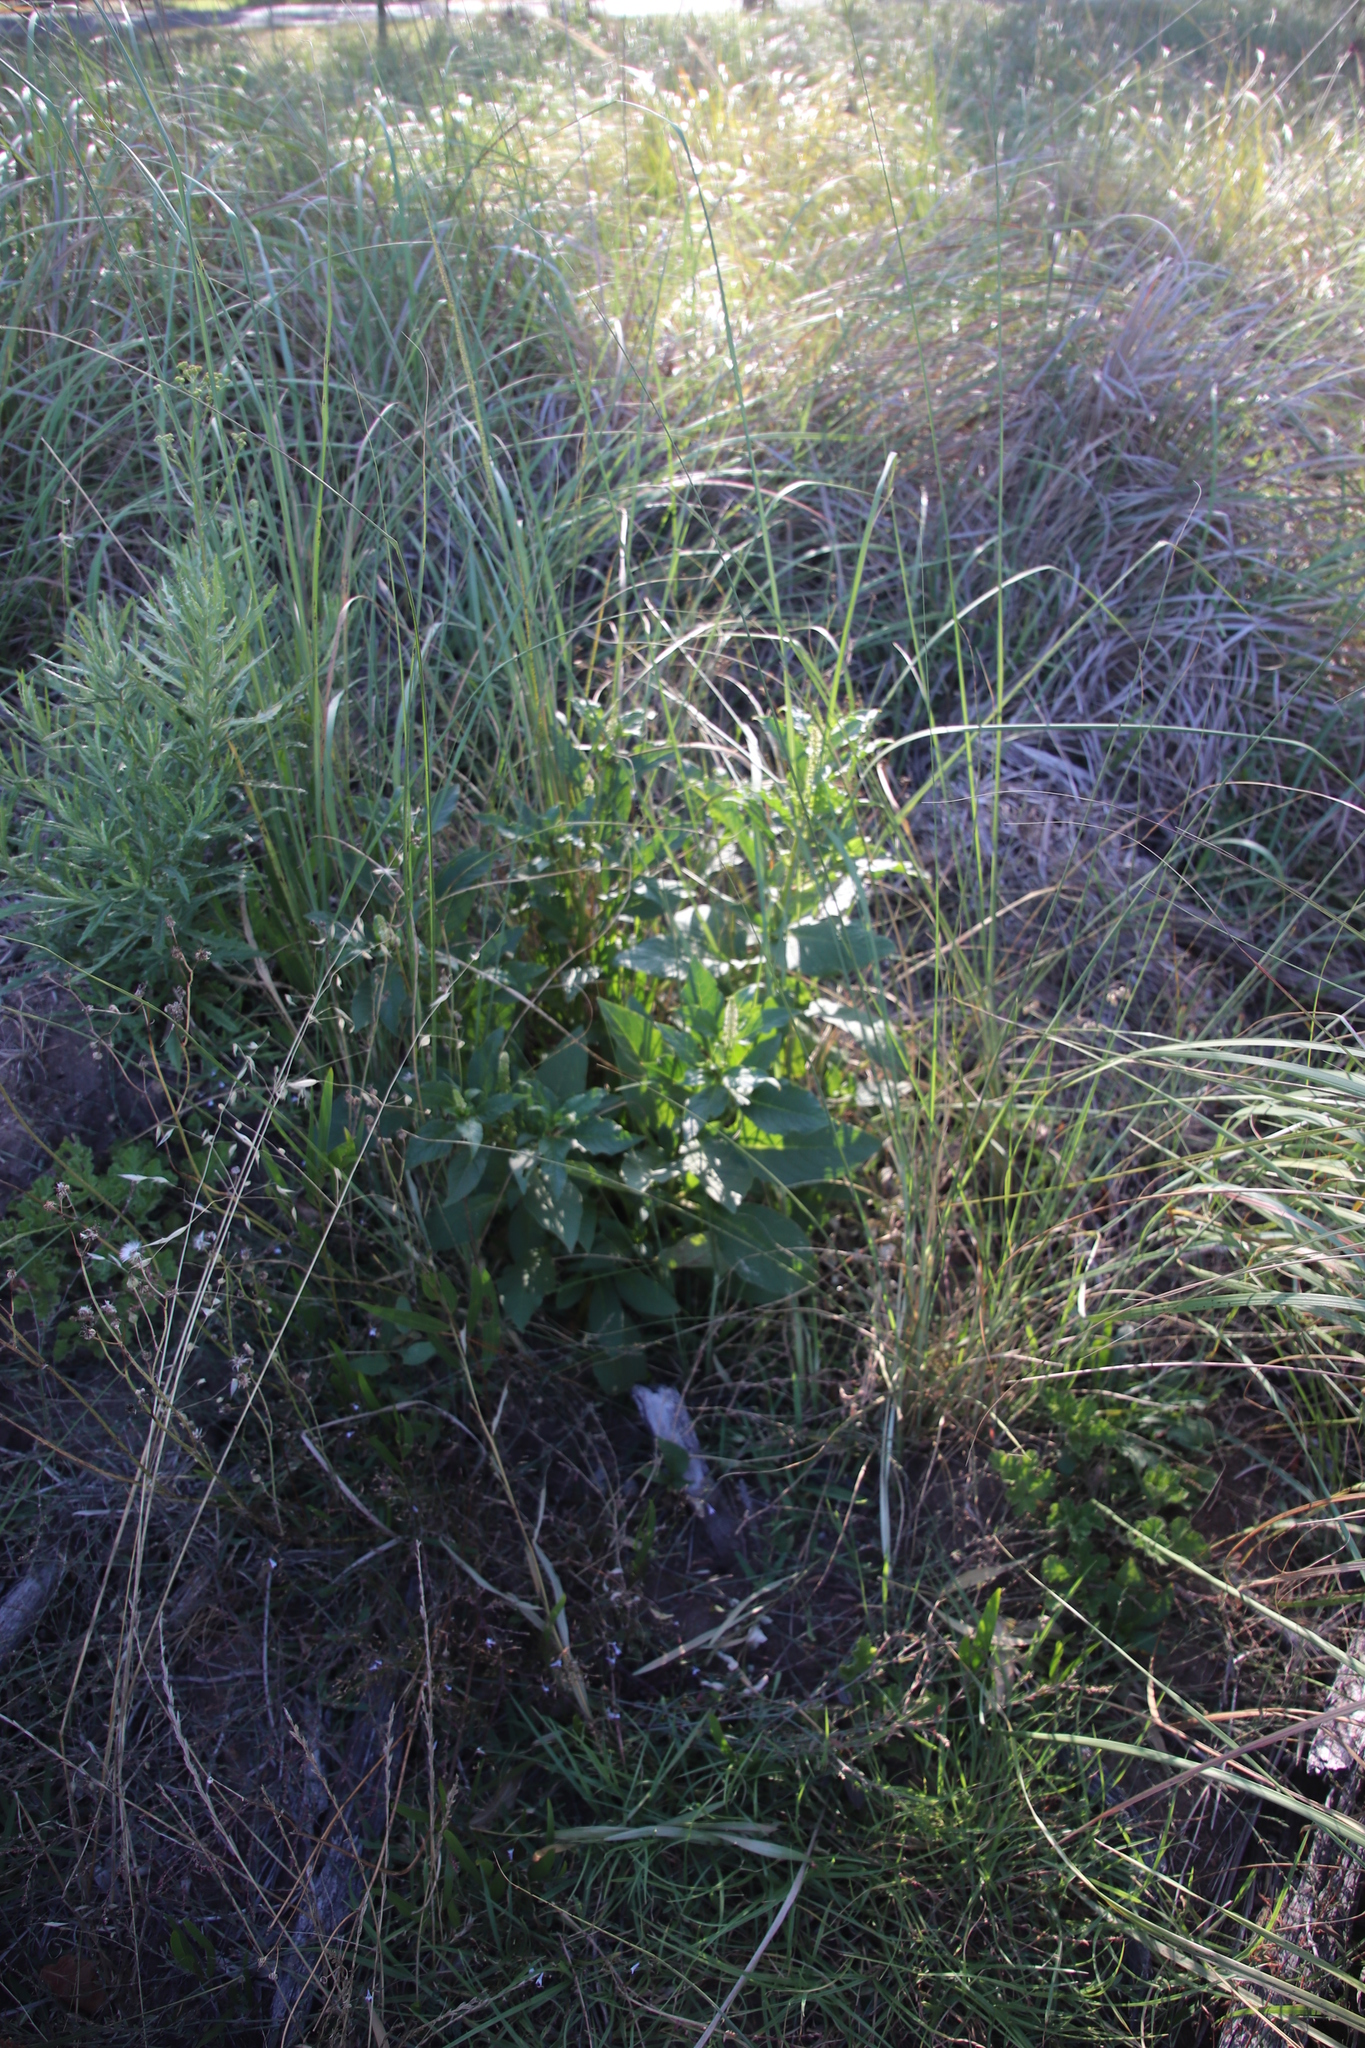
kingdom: Plantae
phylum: Tracheophyta
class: Magnoliopsida
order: Caryophyllales
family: Phytolaccaceae
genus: Phytolacca
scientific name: Phytolacca icosandra
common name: Button pokeweed
